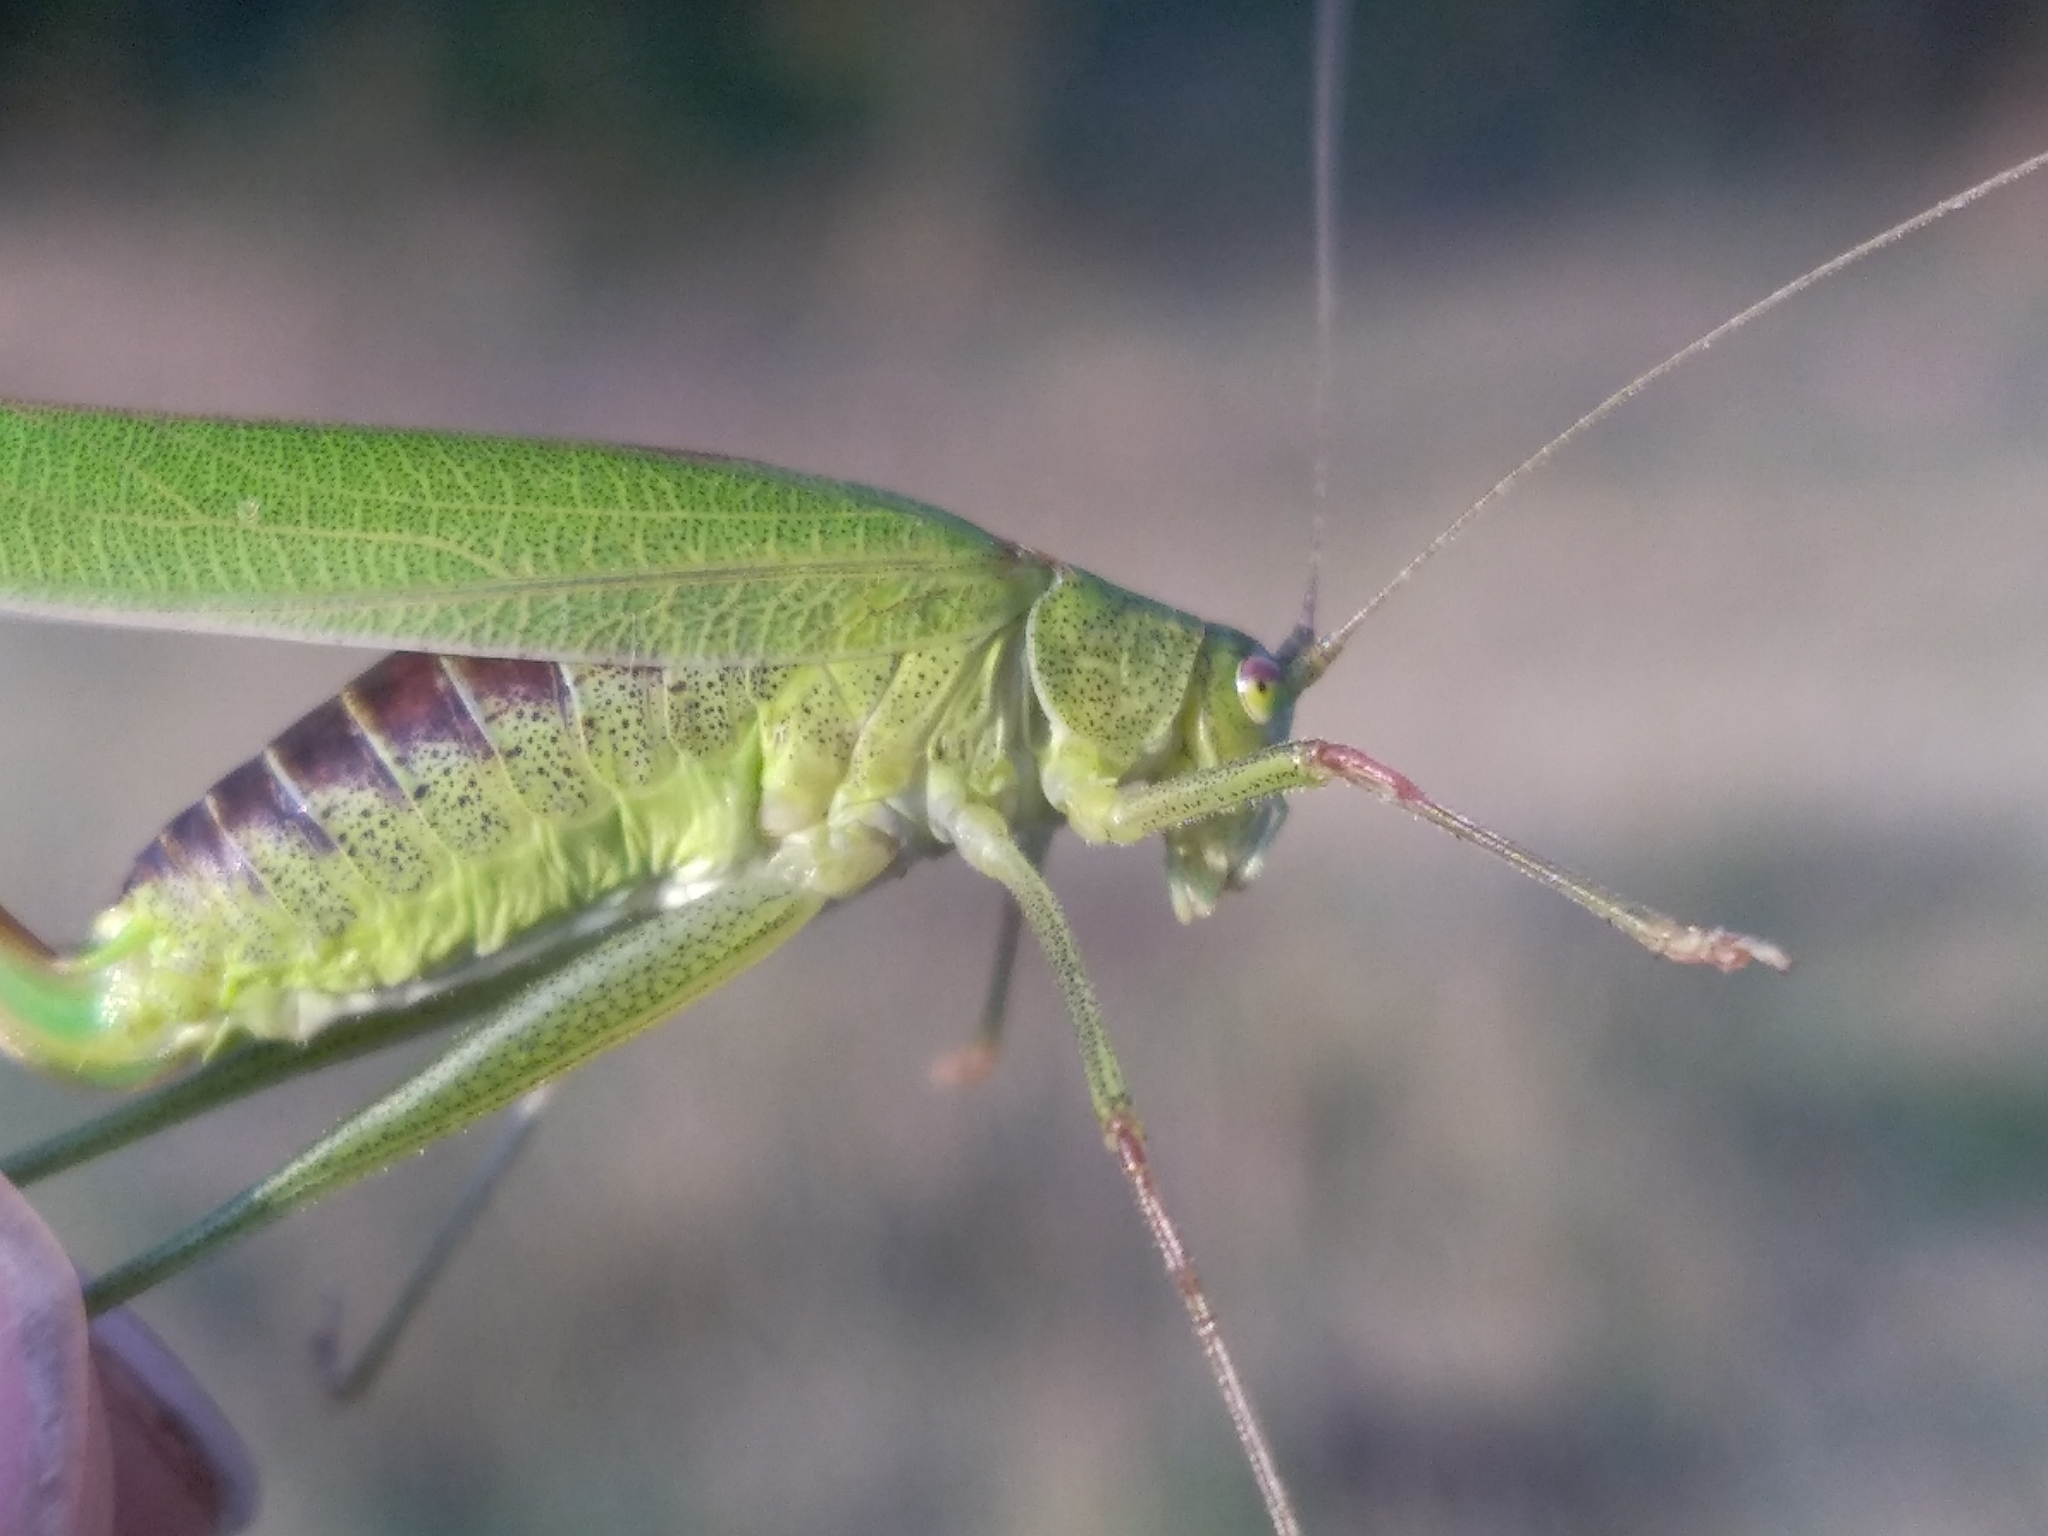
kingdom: Animalia
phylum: Arthropoda
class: Insecta
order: Orthoptera
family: Tettigoniidae
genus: Phaneroptera
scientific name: Phaneroptera falcata
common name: Sickle-bearing bush-cricket
